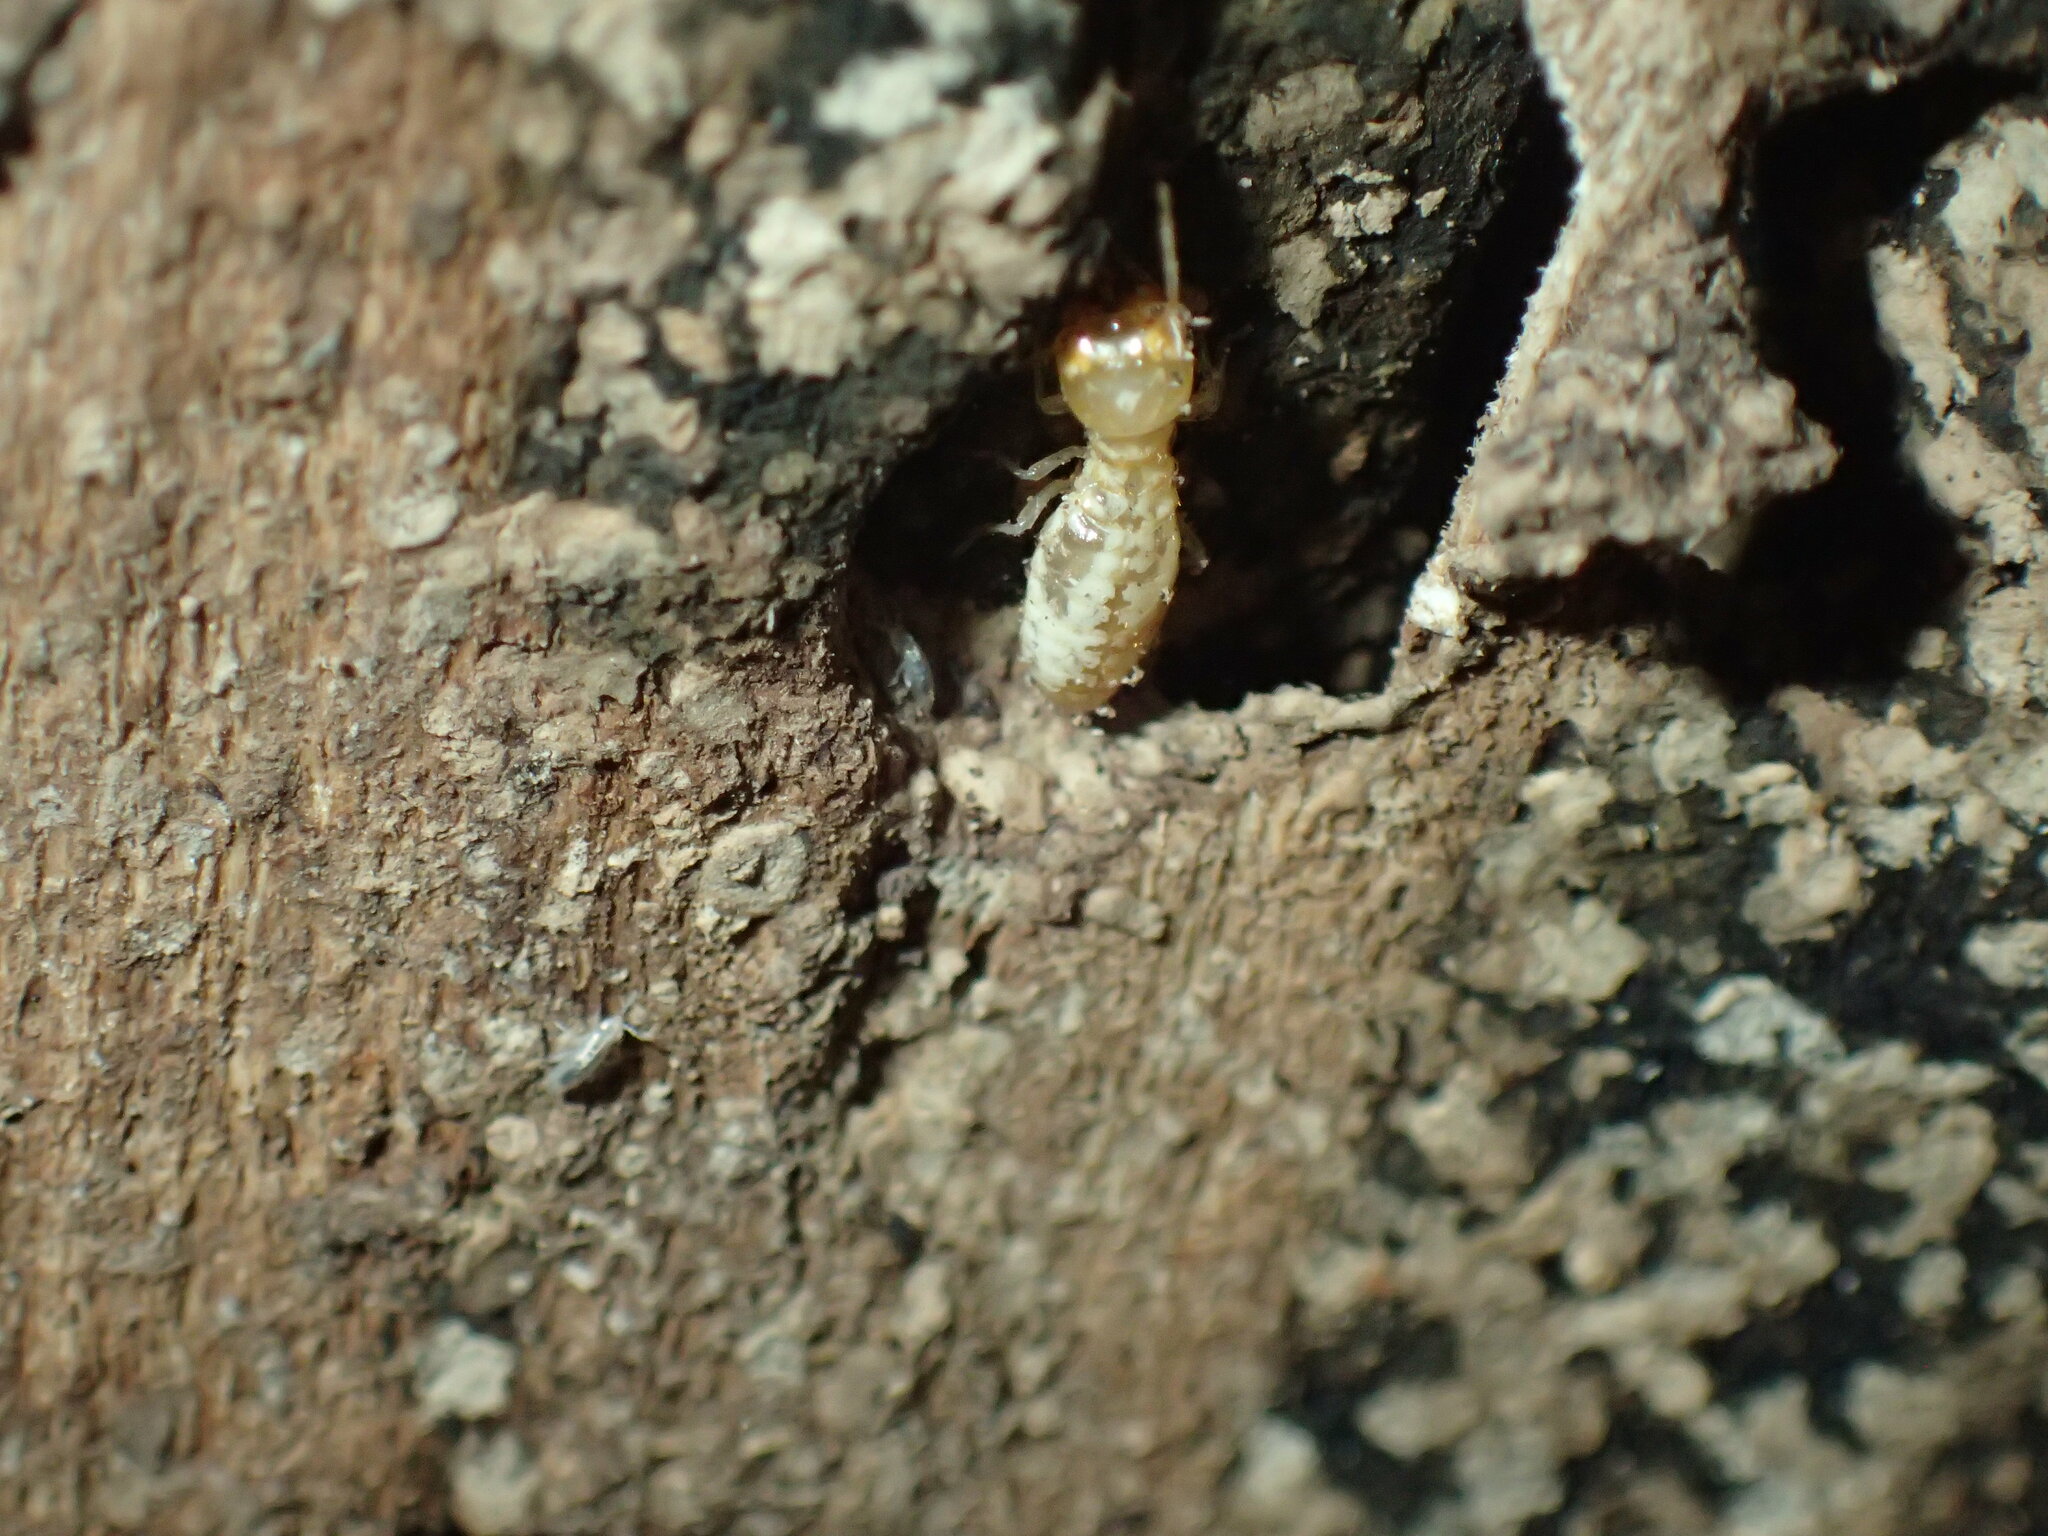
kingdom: Animalia
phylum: Arthropoda
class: Insecta
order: Blattodea
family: Rhinotermitidae
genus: Schedorhinotermes
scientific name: Schedorhinotermes lamanianus
